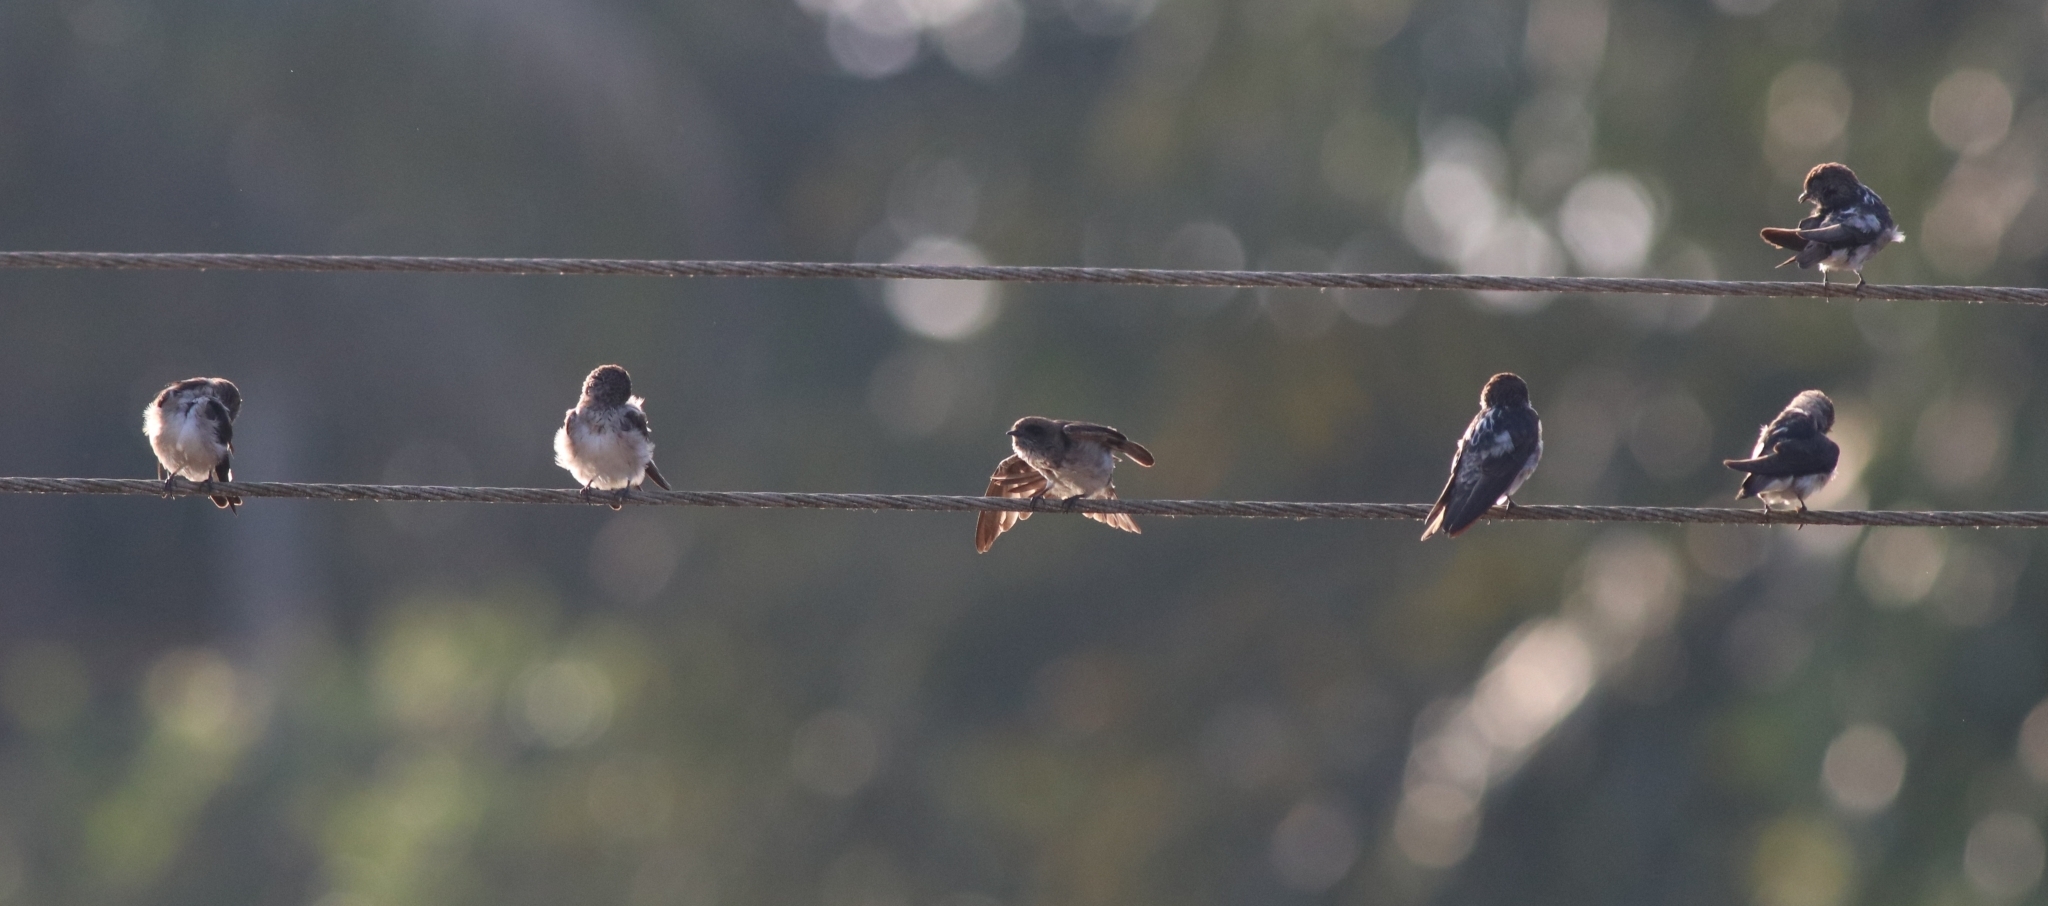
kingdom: Animalia
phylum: Chordata
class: Aves
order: Passeriformes
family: Hirundinidae
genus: Petrochelidon
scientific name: Petrochelidon fluvicola
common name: Streak-throated swallow
